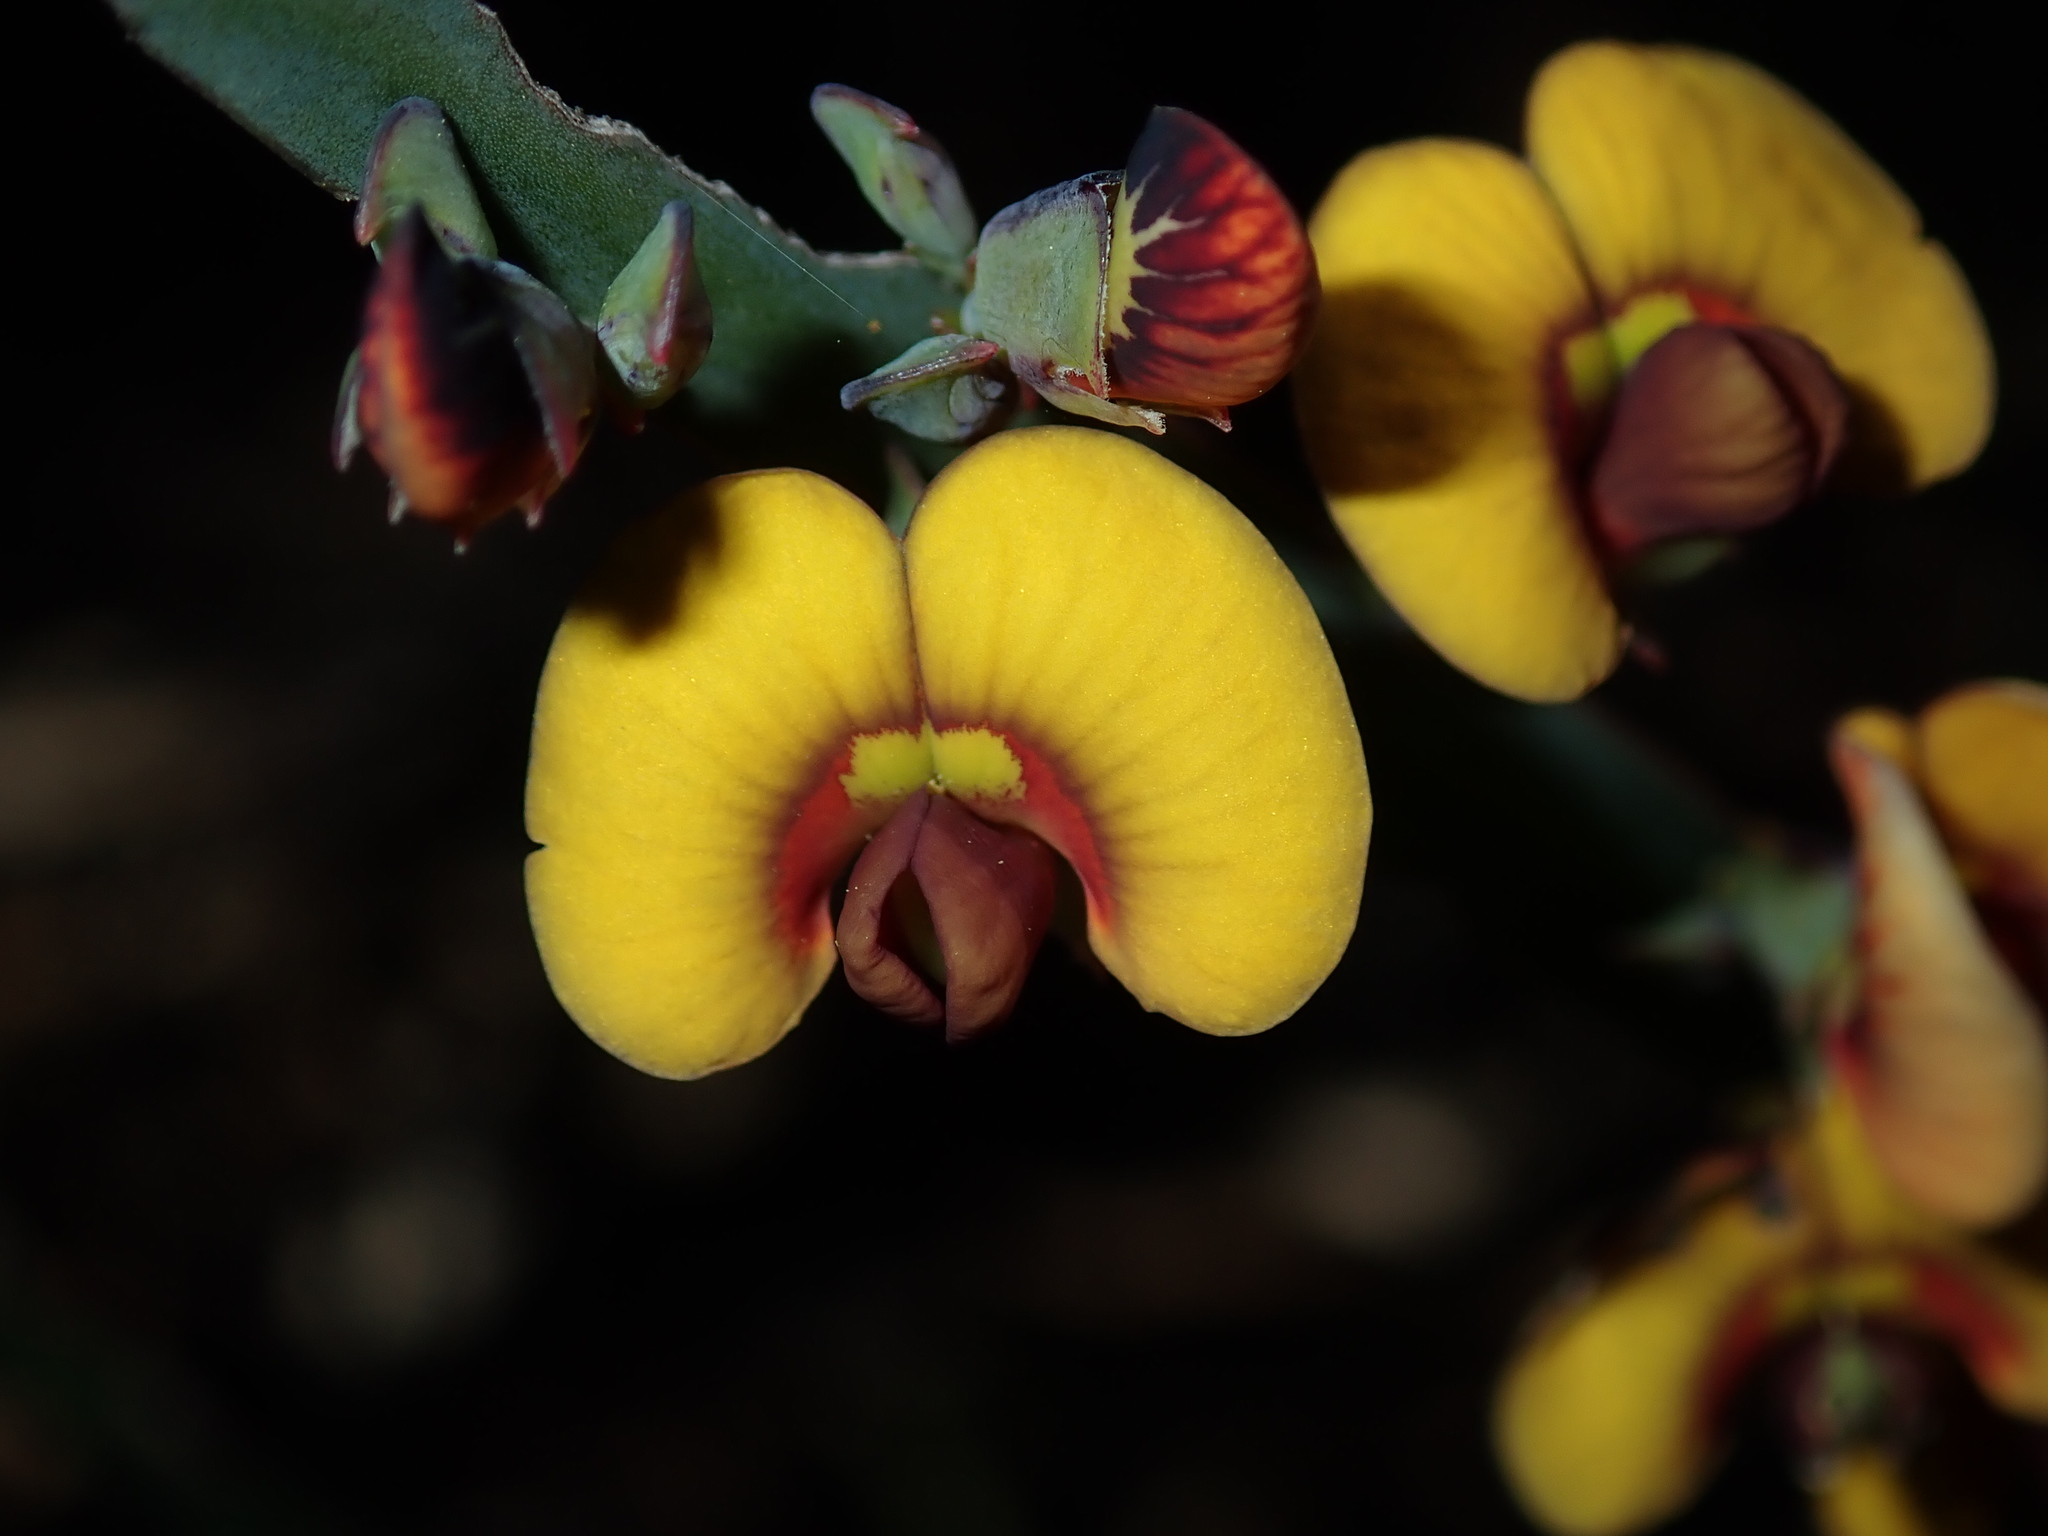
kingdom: Plantae
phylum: Tracheophyta
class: Magnoliopsida
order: Fabales
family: Fabaceae
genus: Bossiaea
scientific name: Bossiaea scolopendria
